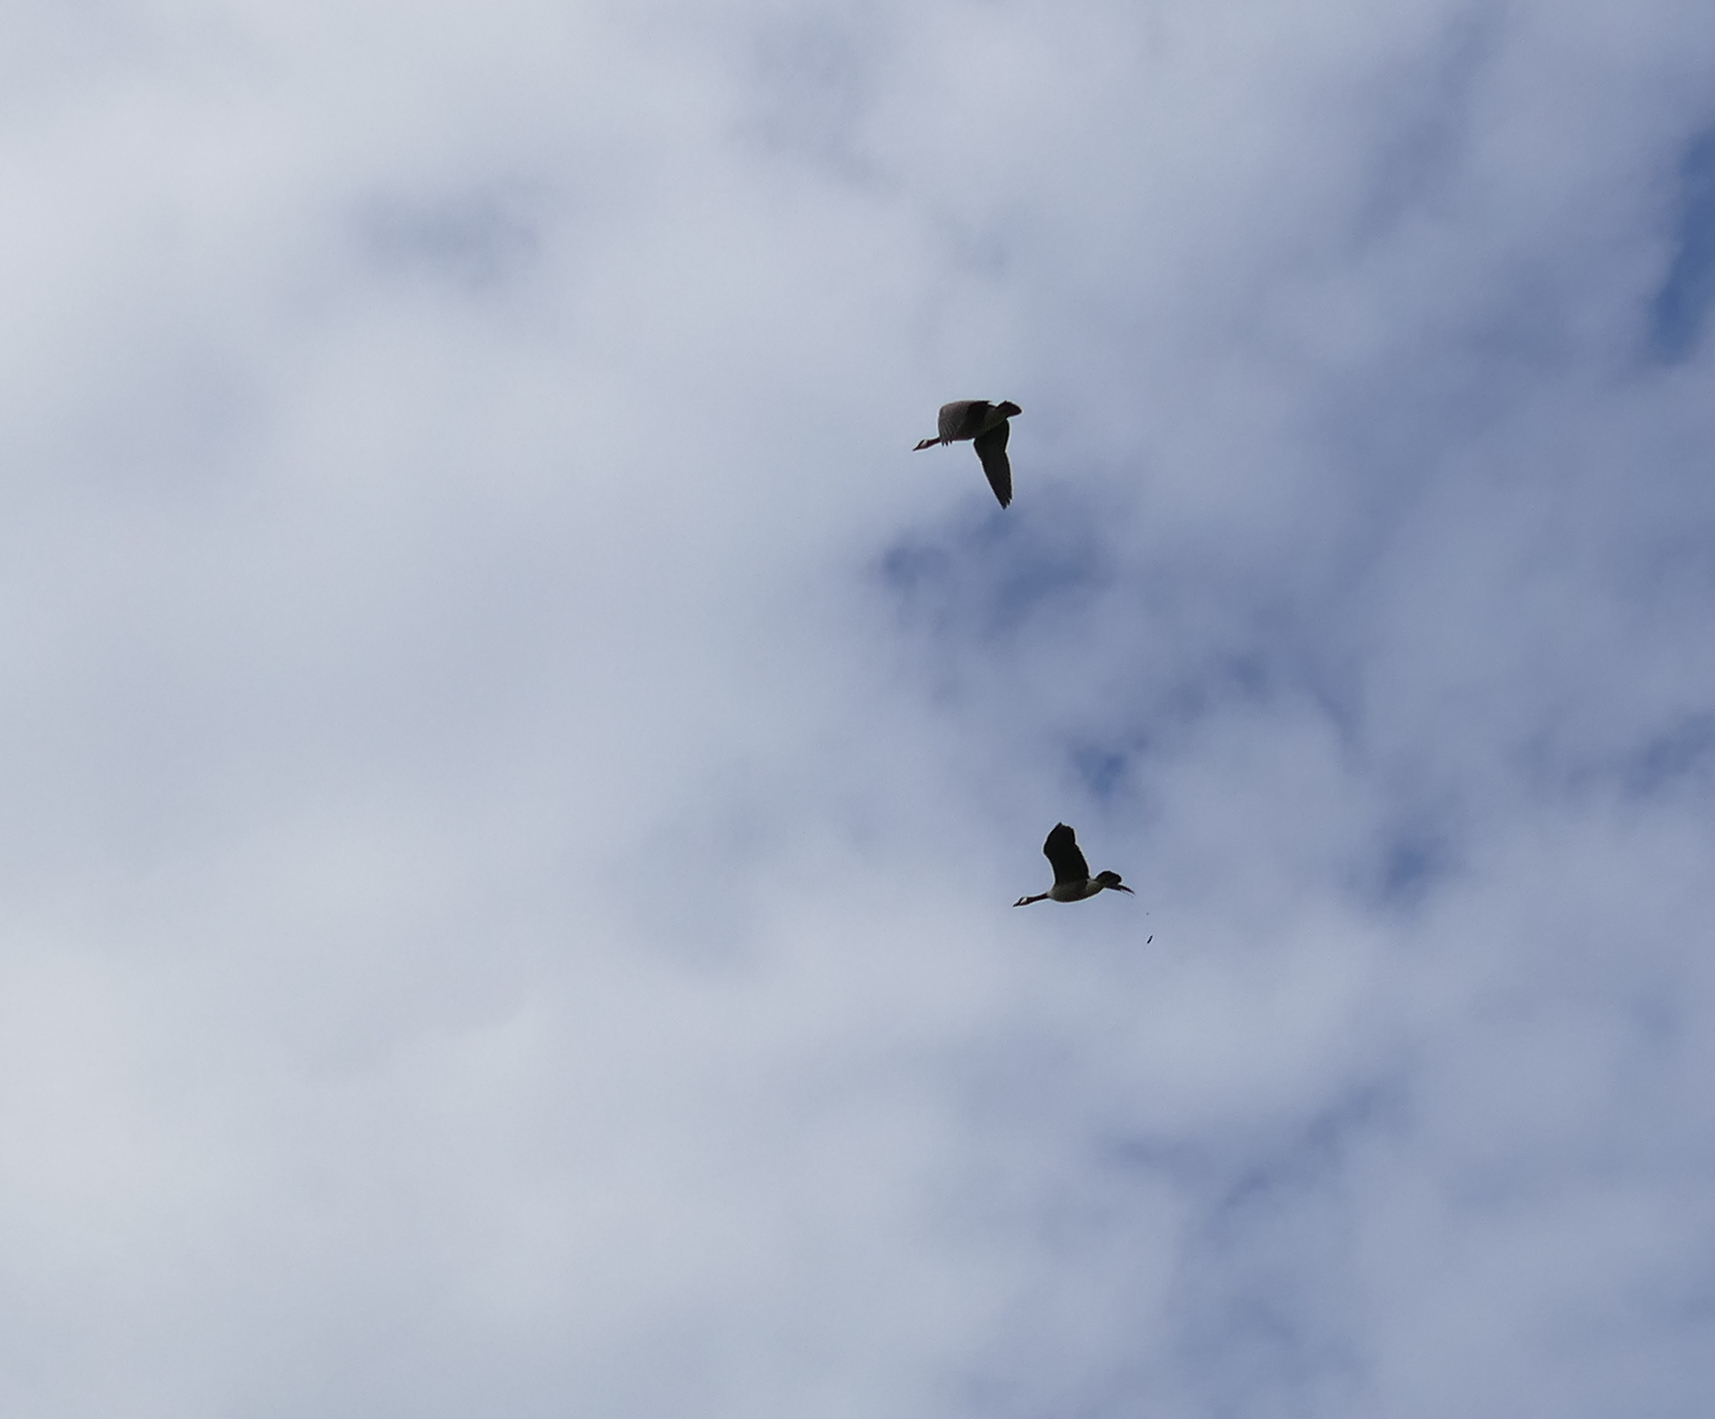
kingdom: Animalia
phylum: Chordata
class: Aves
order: Anseriformes
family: Anatidae
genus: Branta
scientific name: Branta canadensis
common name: Canada goose
